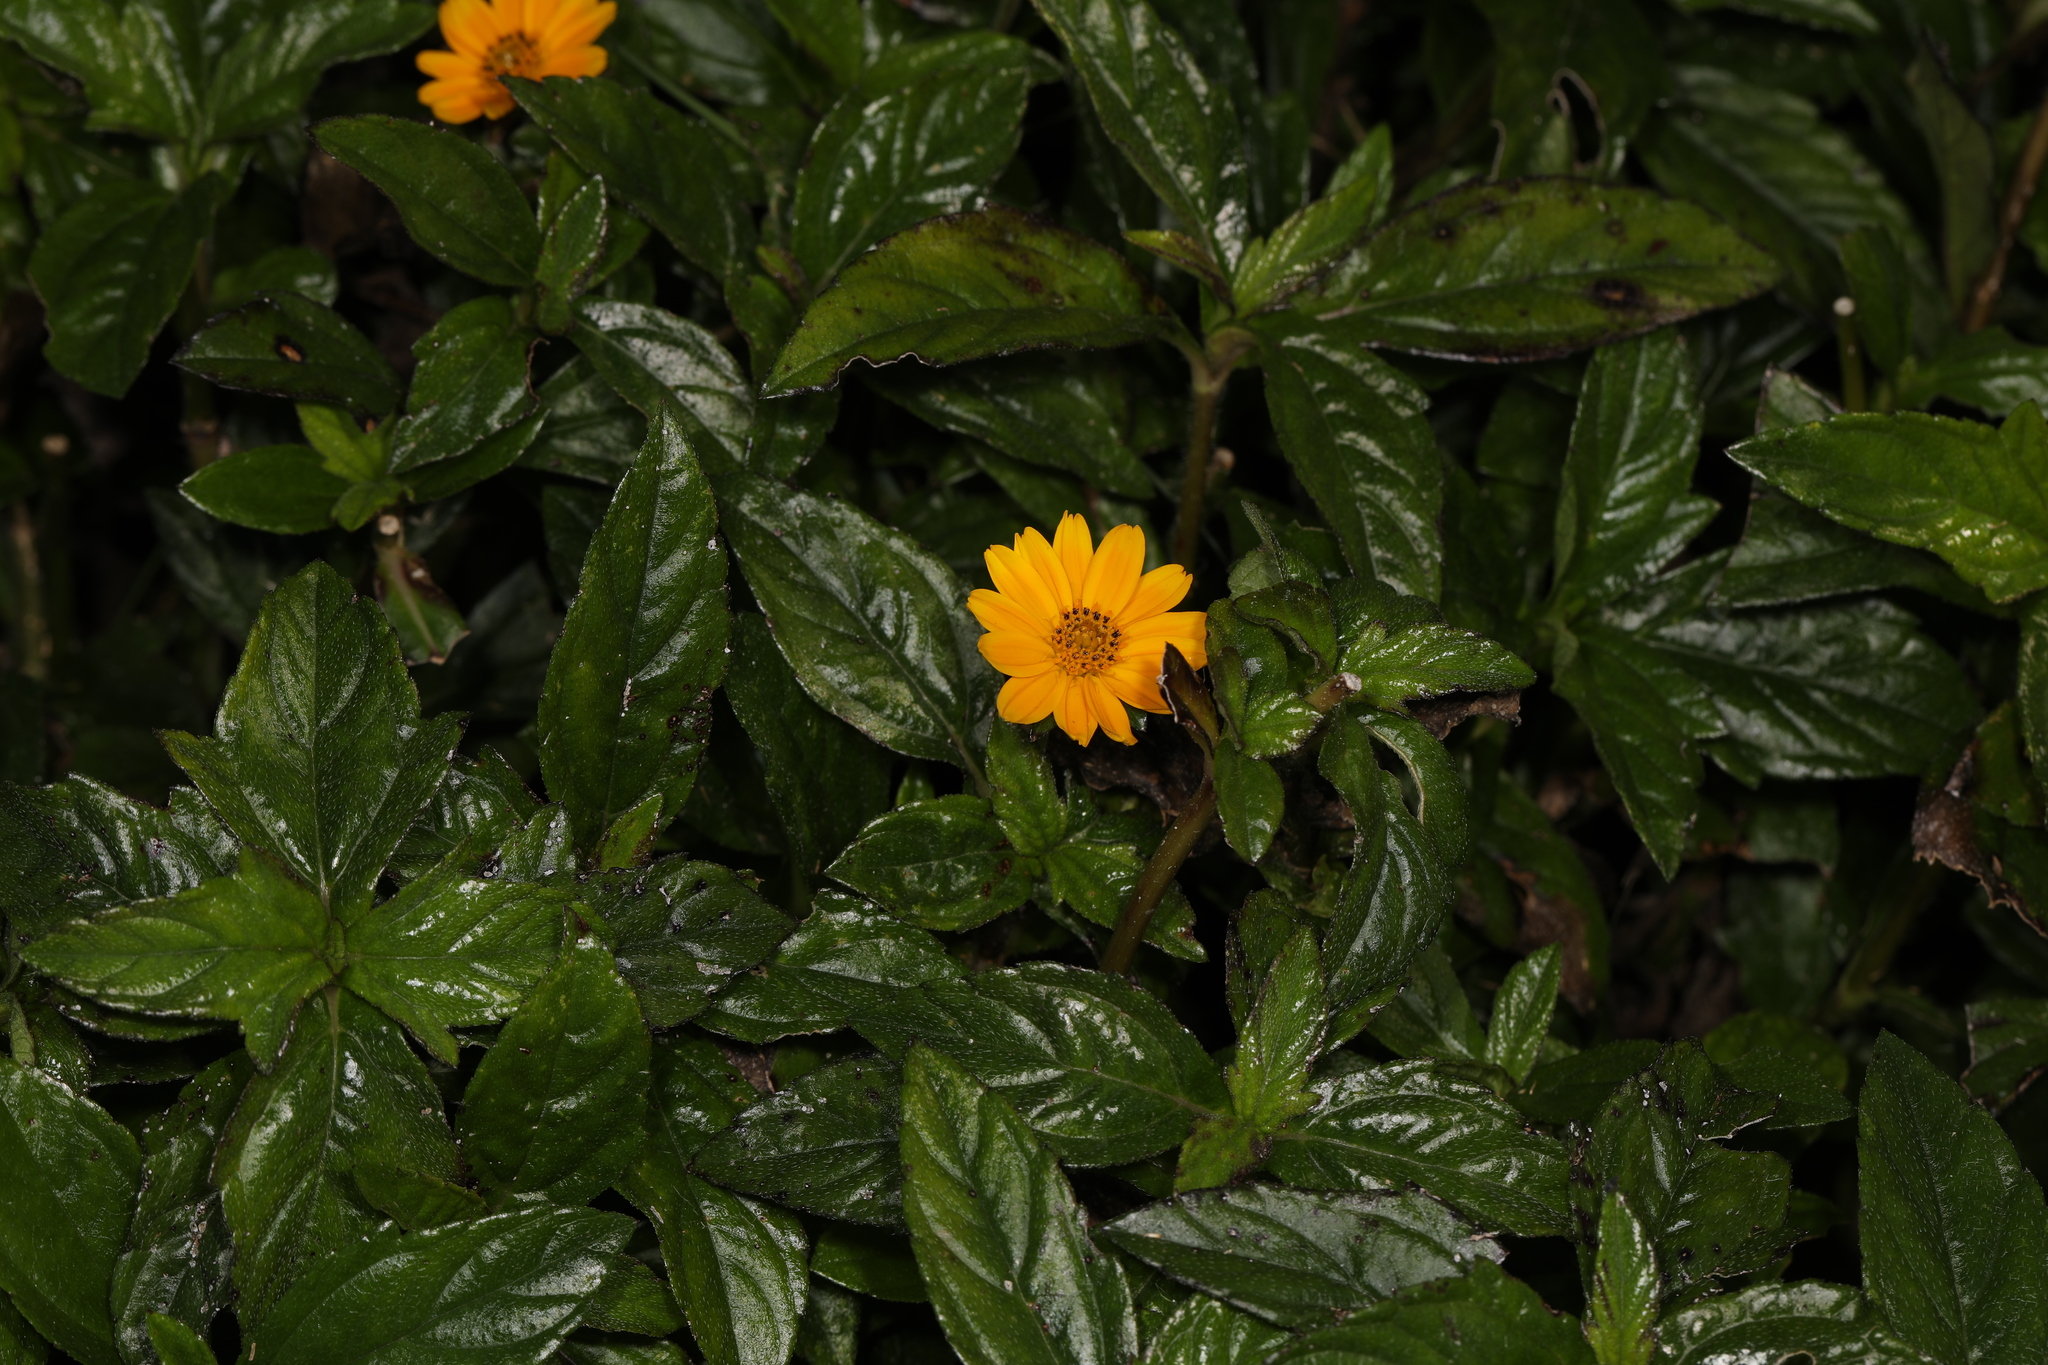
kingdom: Plantae
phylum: Tracheophyta
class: Magnoliopsida
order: Asterales
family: Asteraceae
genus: Sphagneticola
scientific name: Sphagneticola trilobata
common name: Bay biscayne creeping-oxeye
